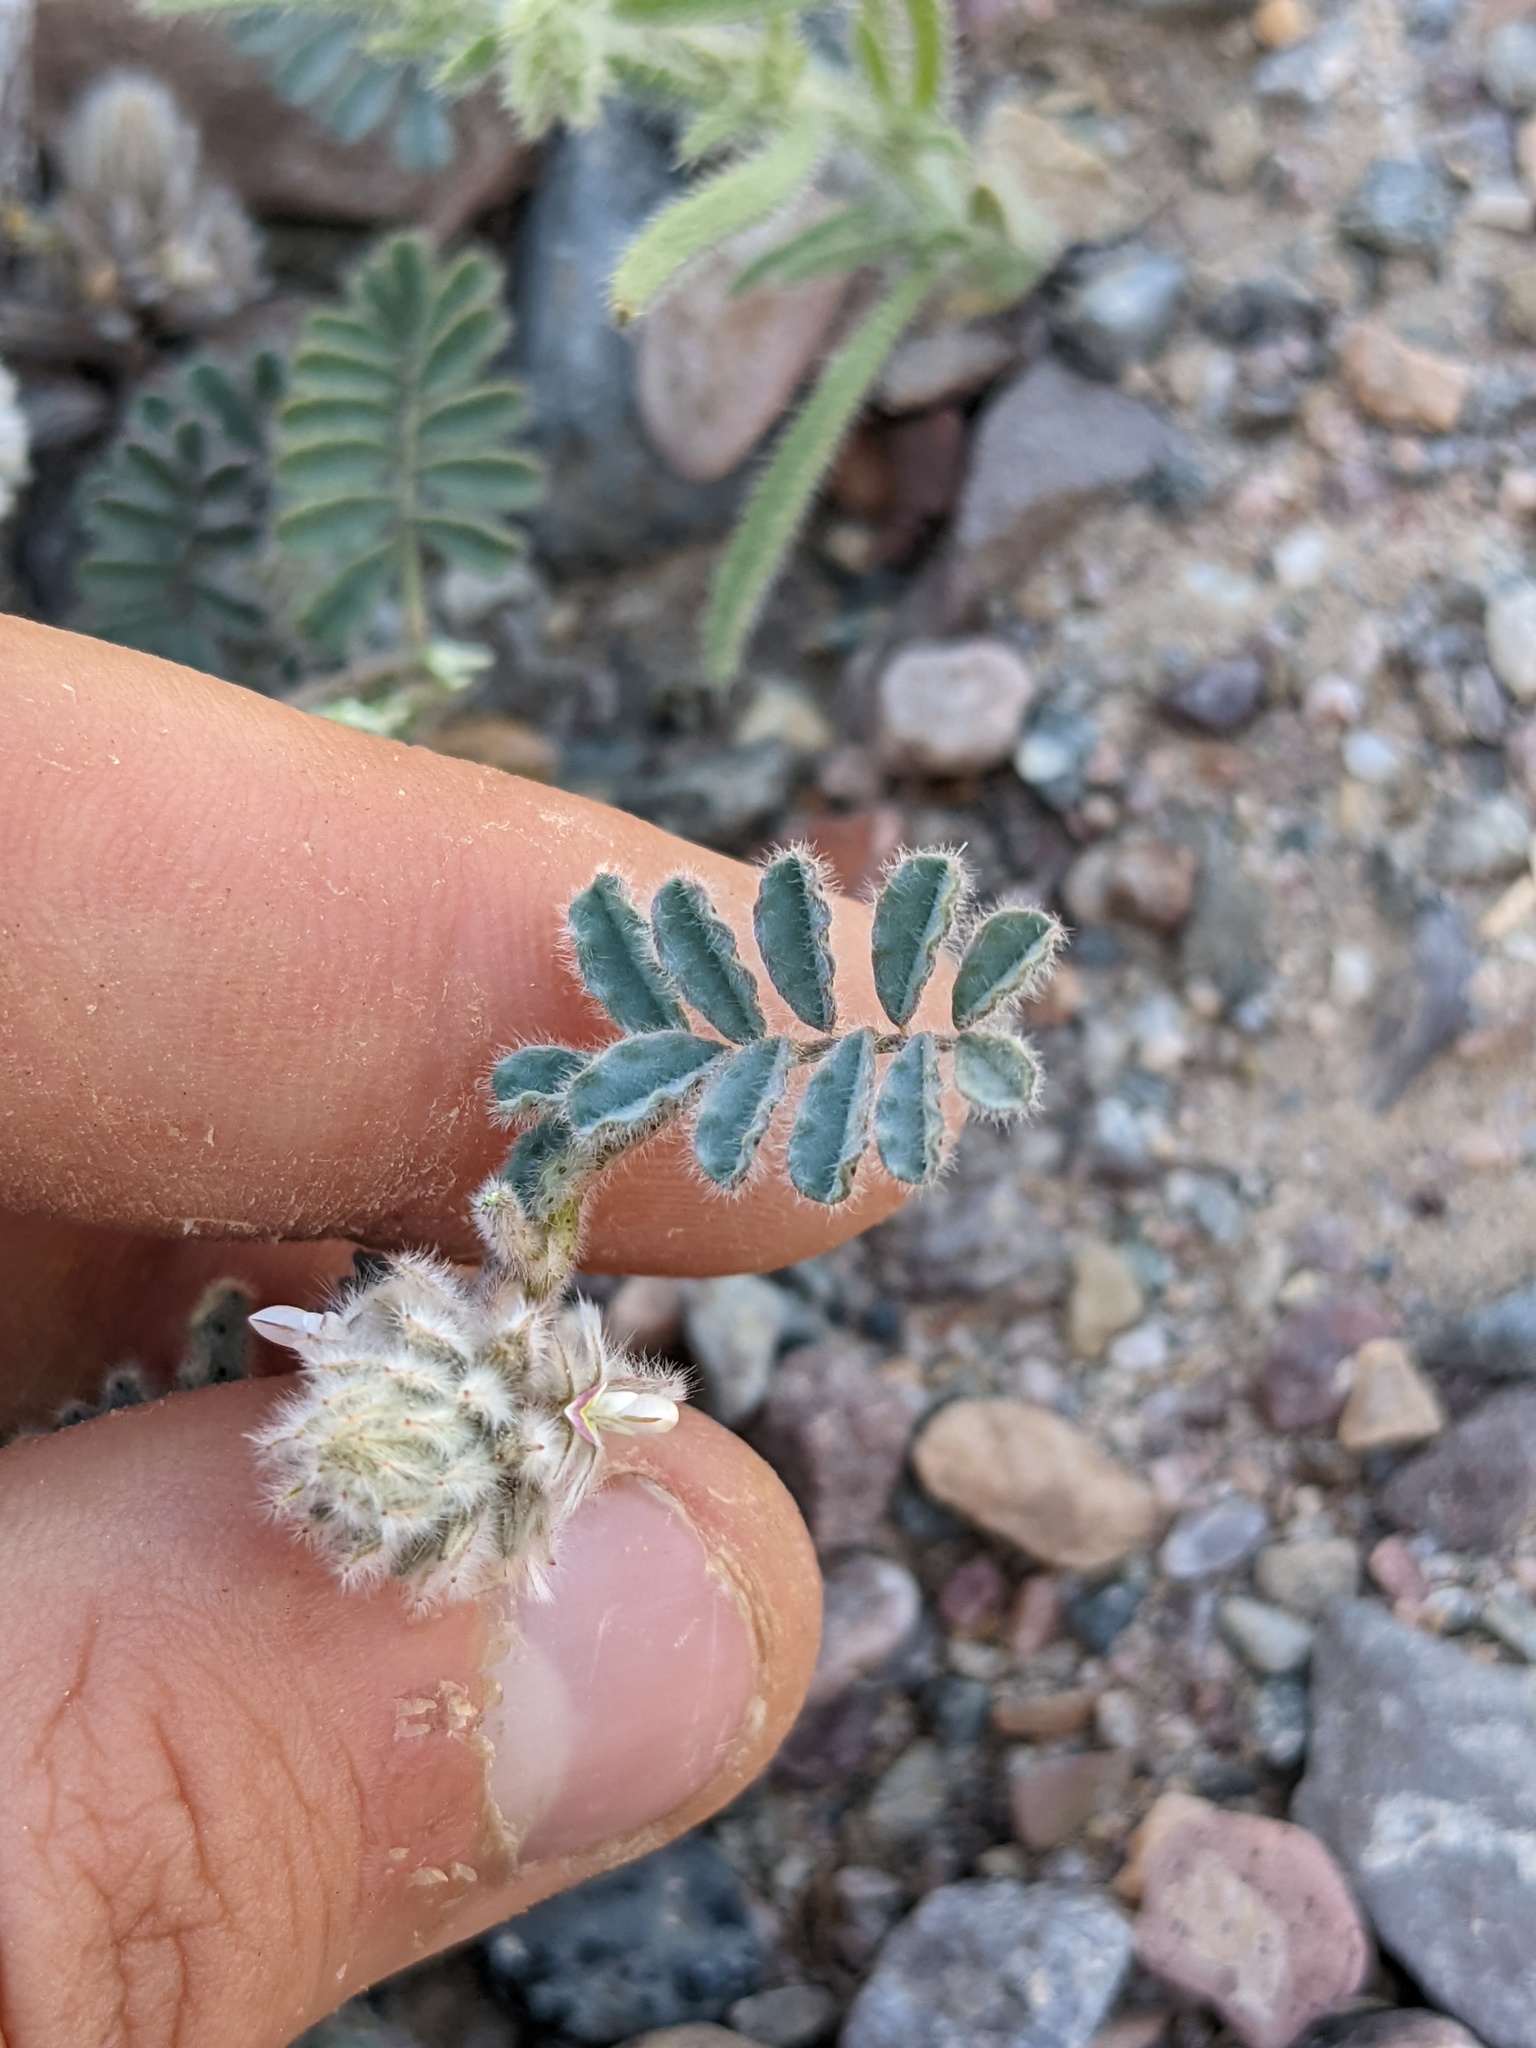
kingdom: Plantae
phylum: Tracheophyta
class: Magnoliopsida
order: Fabales
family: Fabaceae
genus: Dalea
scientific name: Dalea mollissima
